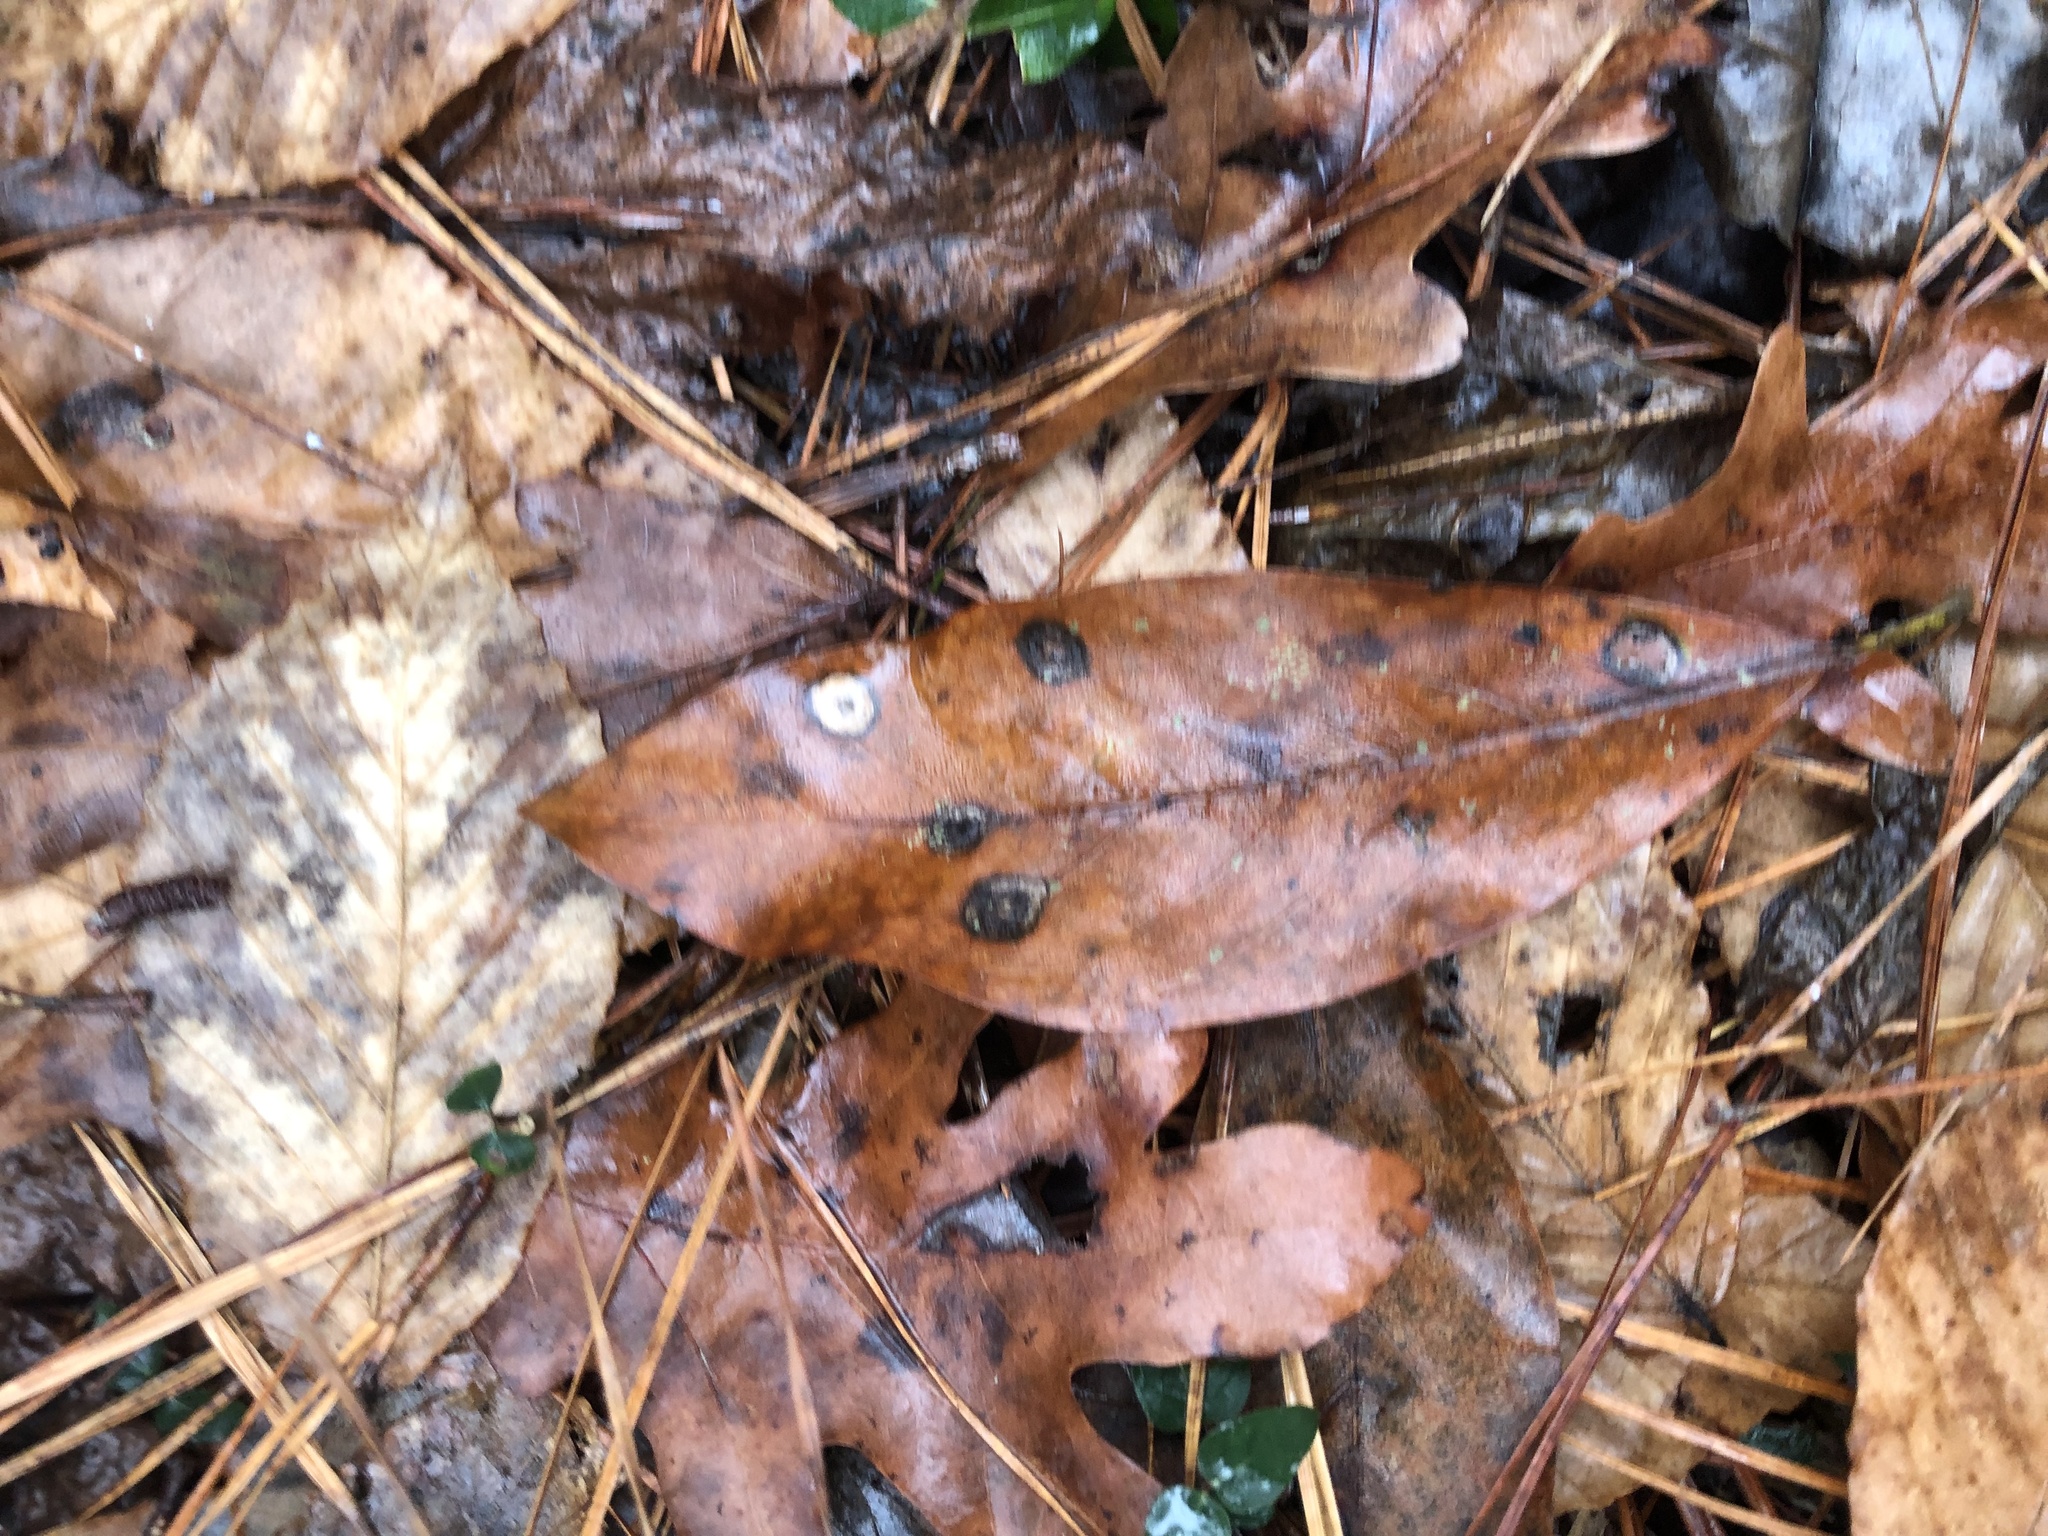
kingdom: Plantae
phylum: Tracheophyta
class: Magnoliopsida
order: Magnoliales
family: Magnoliaceae
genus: Magnolia
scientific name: Magnolia virginiana
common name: Swamp bay
